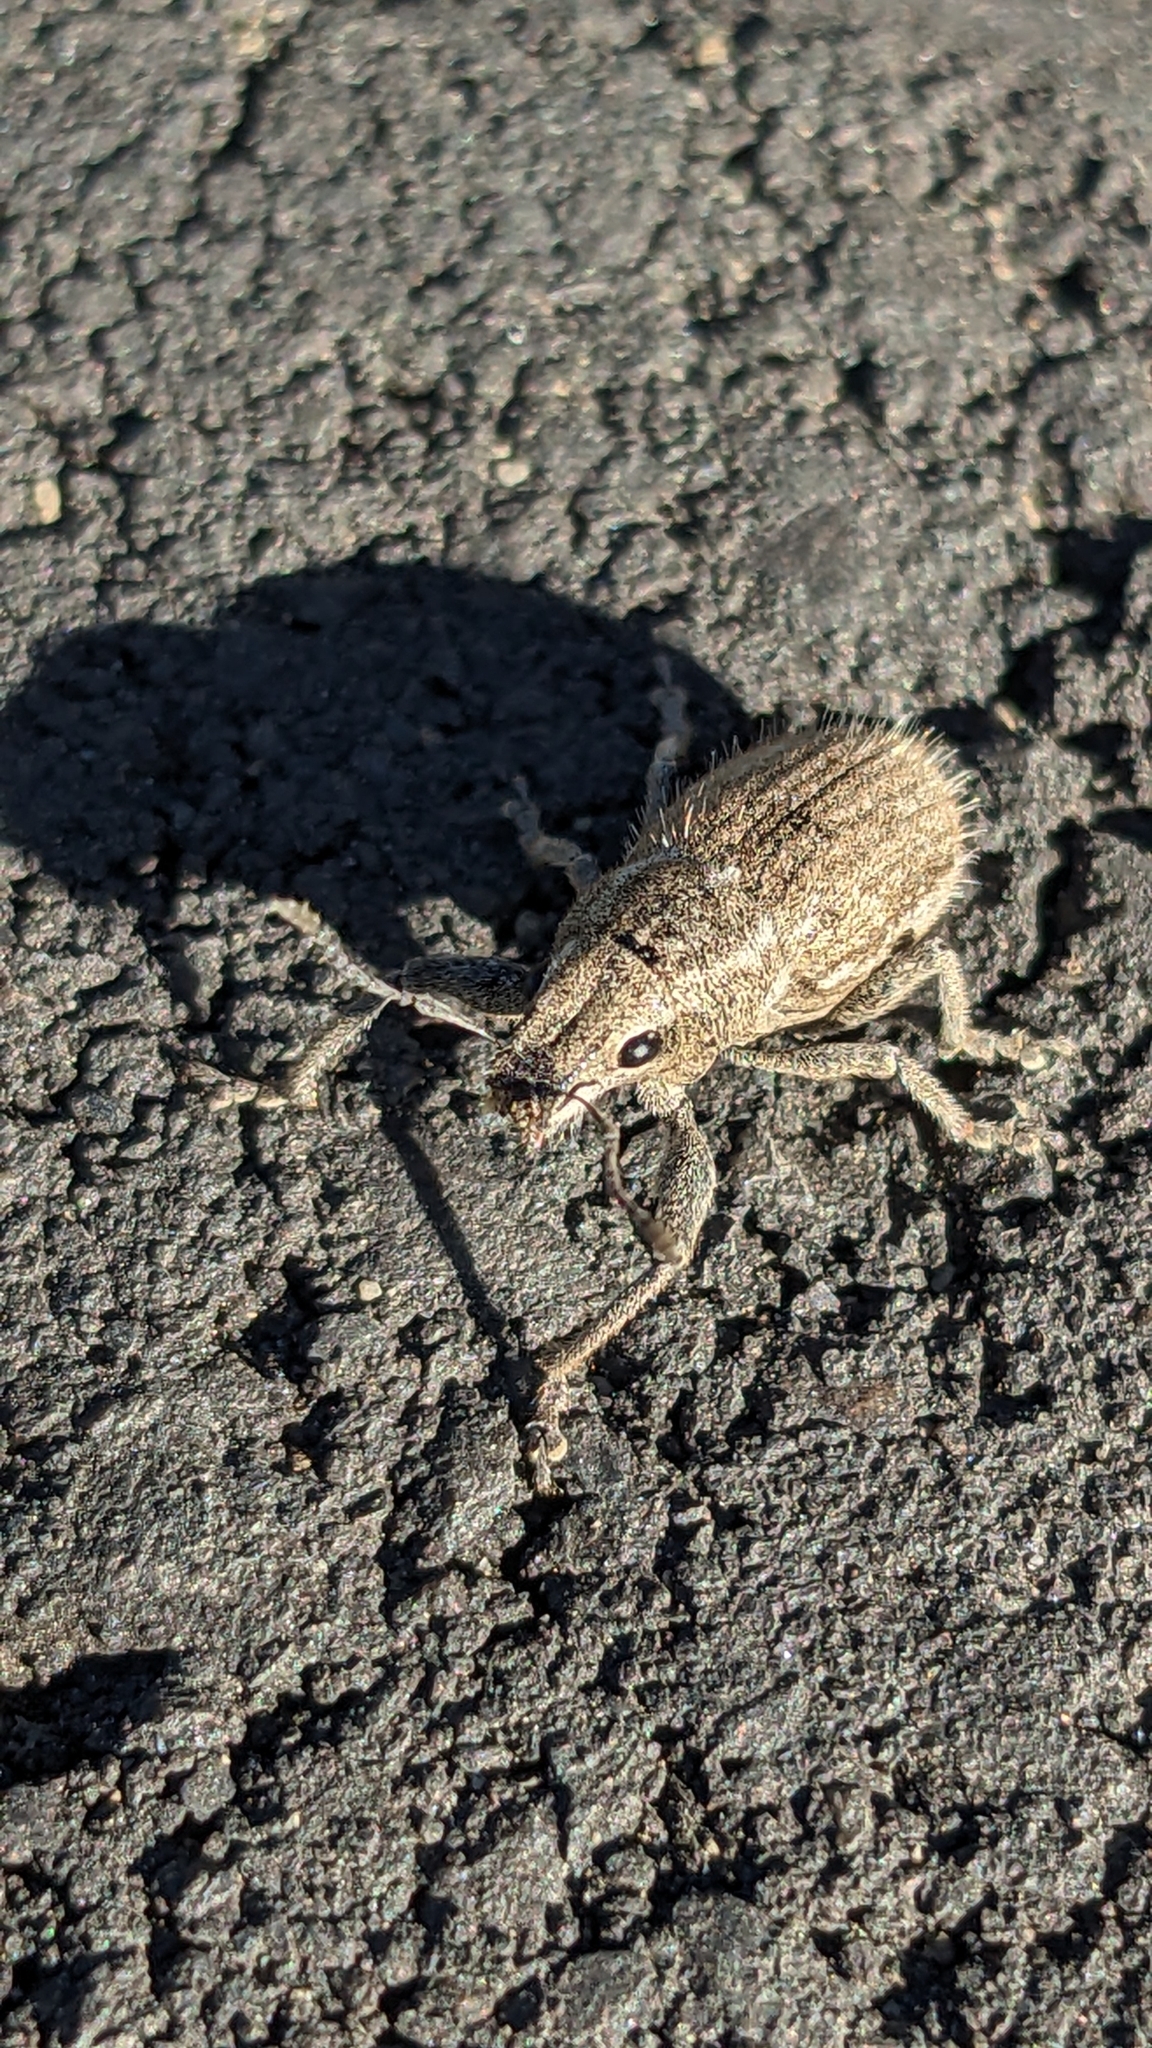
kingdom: Animalia
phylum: Arthropoda
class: Insecta
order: Coleoptera
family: Curculionidae
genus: Naupactus
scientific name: Naupactus leucoloma
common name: Whitefringed beetle
